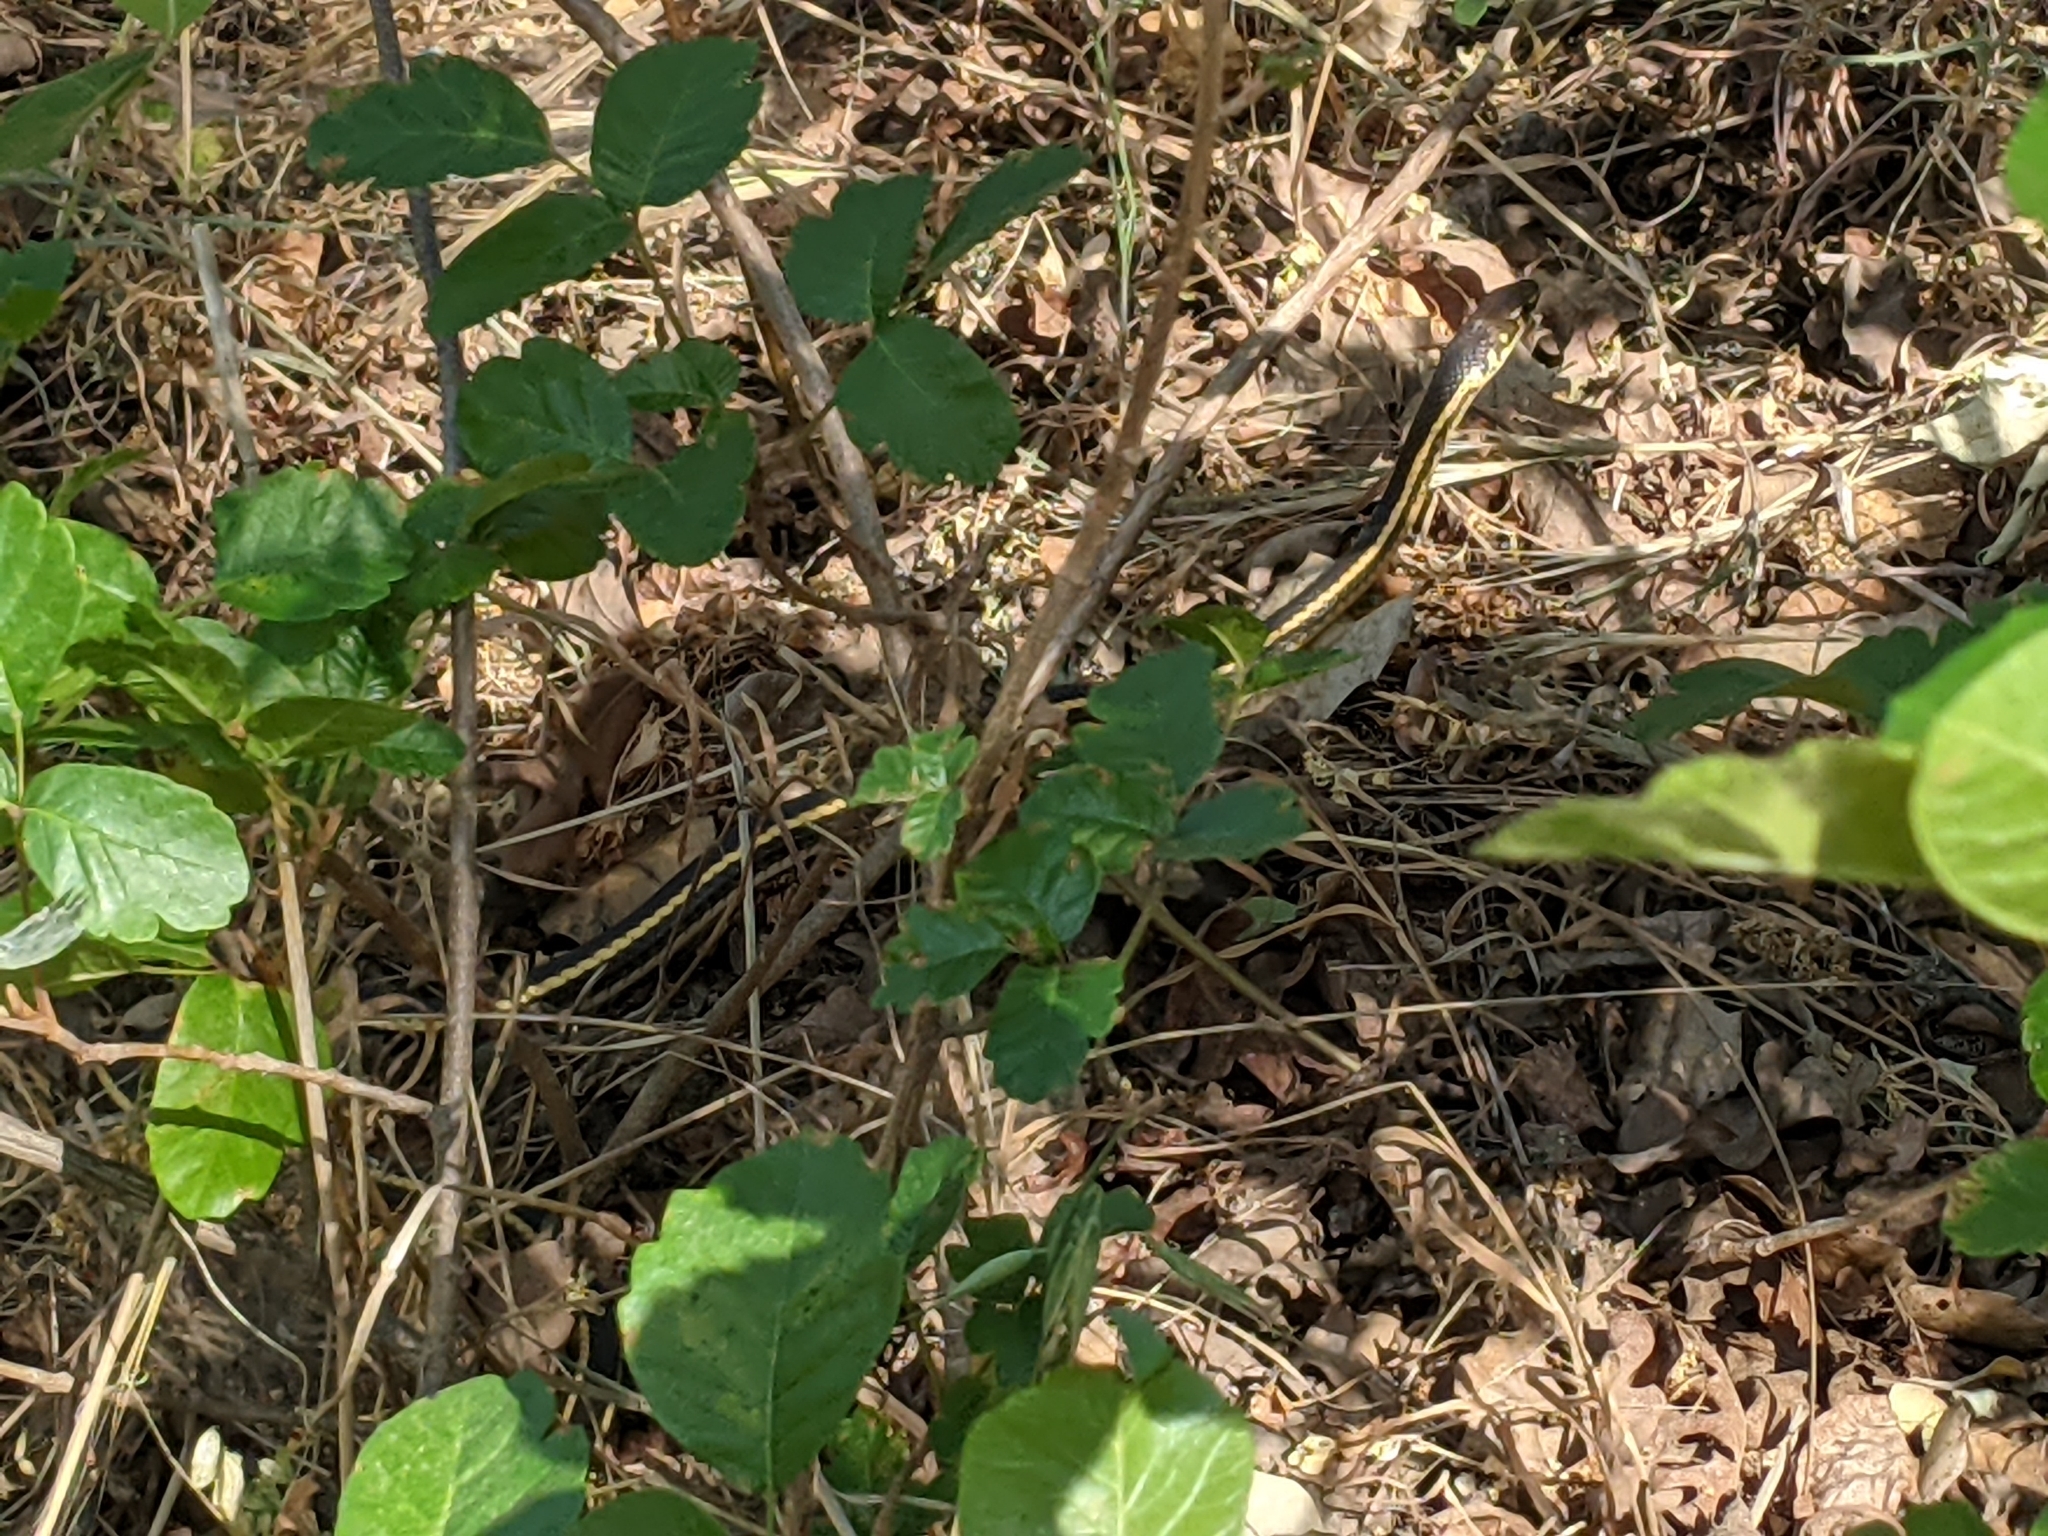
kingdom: Animalia
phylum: Chordata
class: Squamata
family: Colubridae
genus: Masticophis
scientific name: Masticophis lateralis
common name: Striped racer
